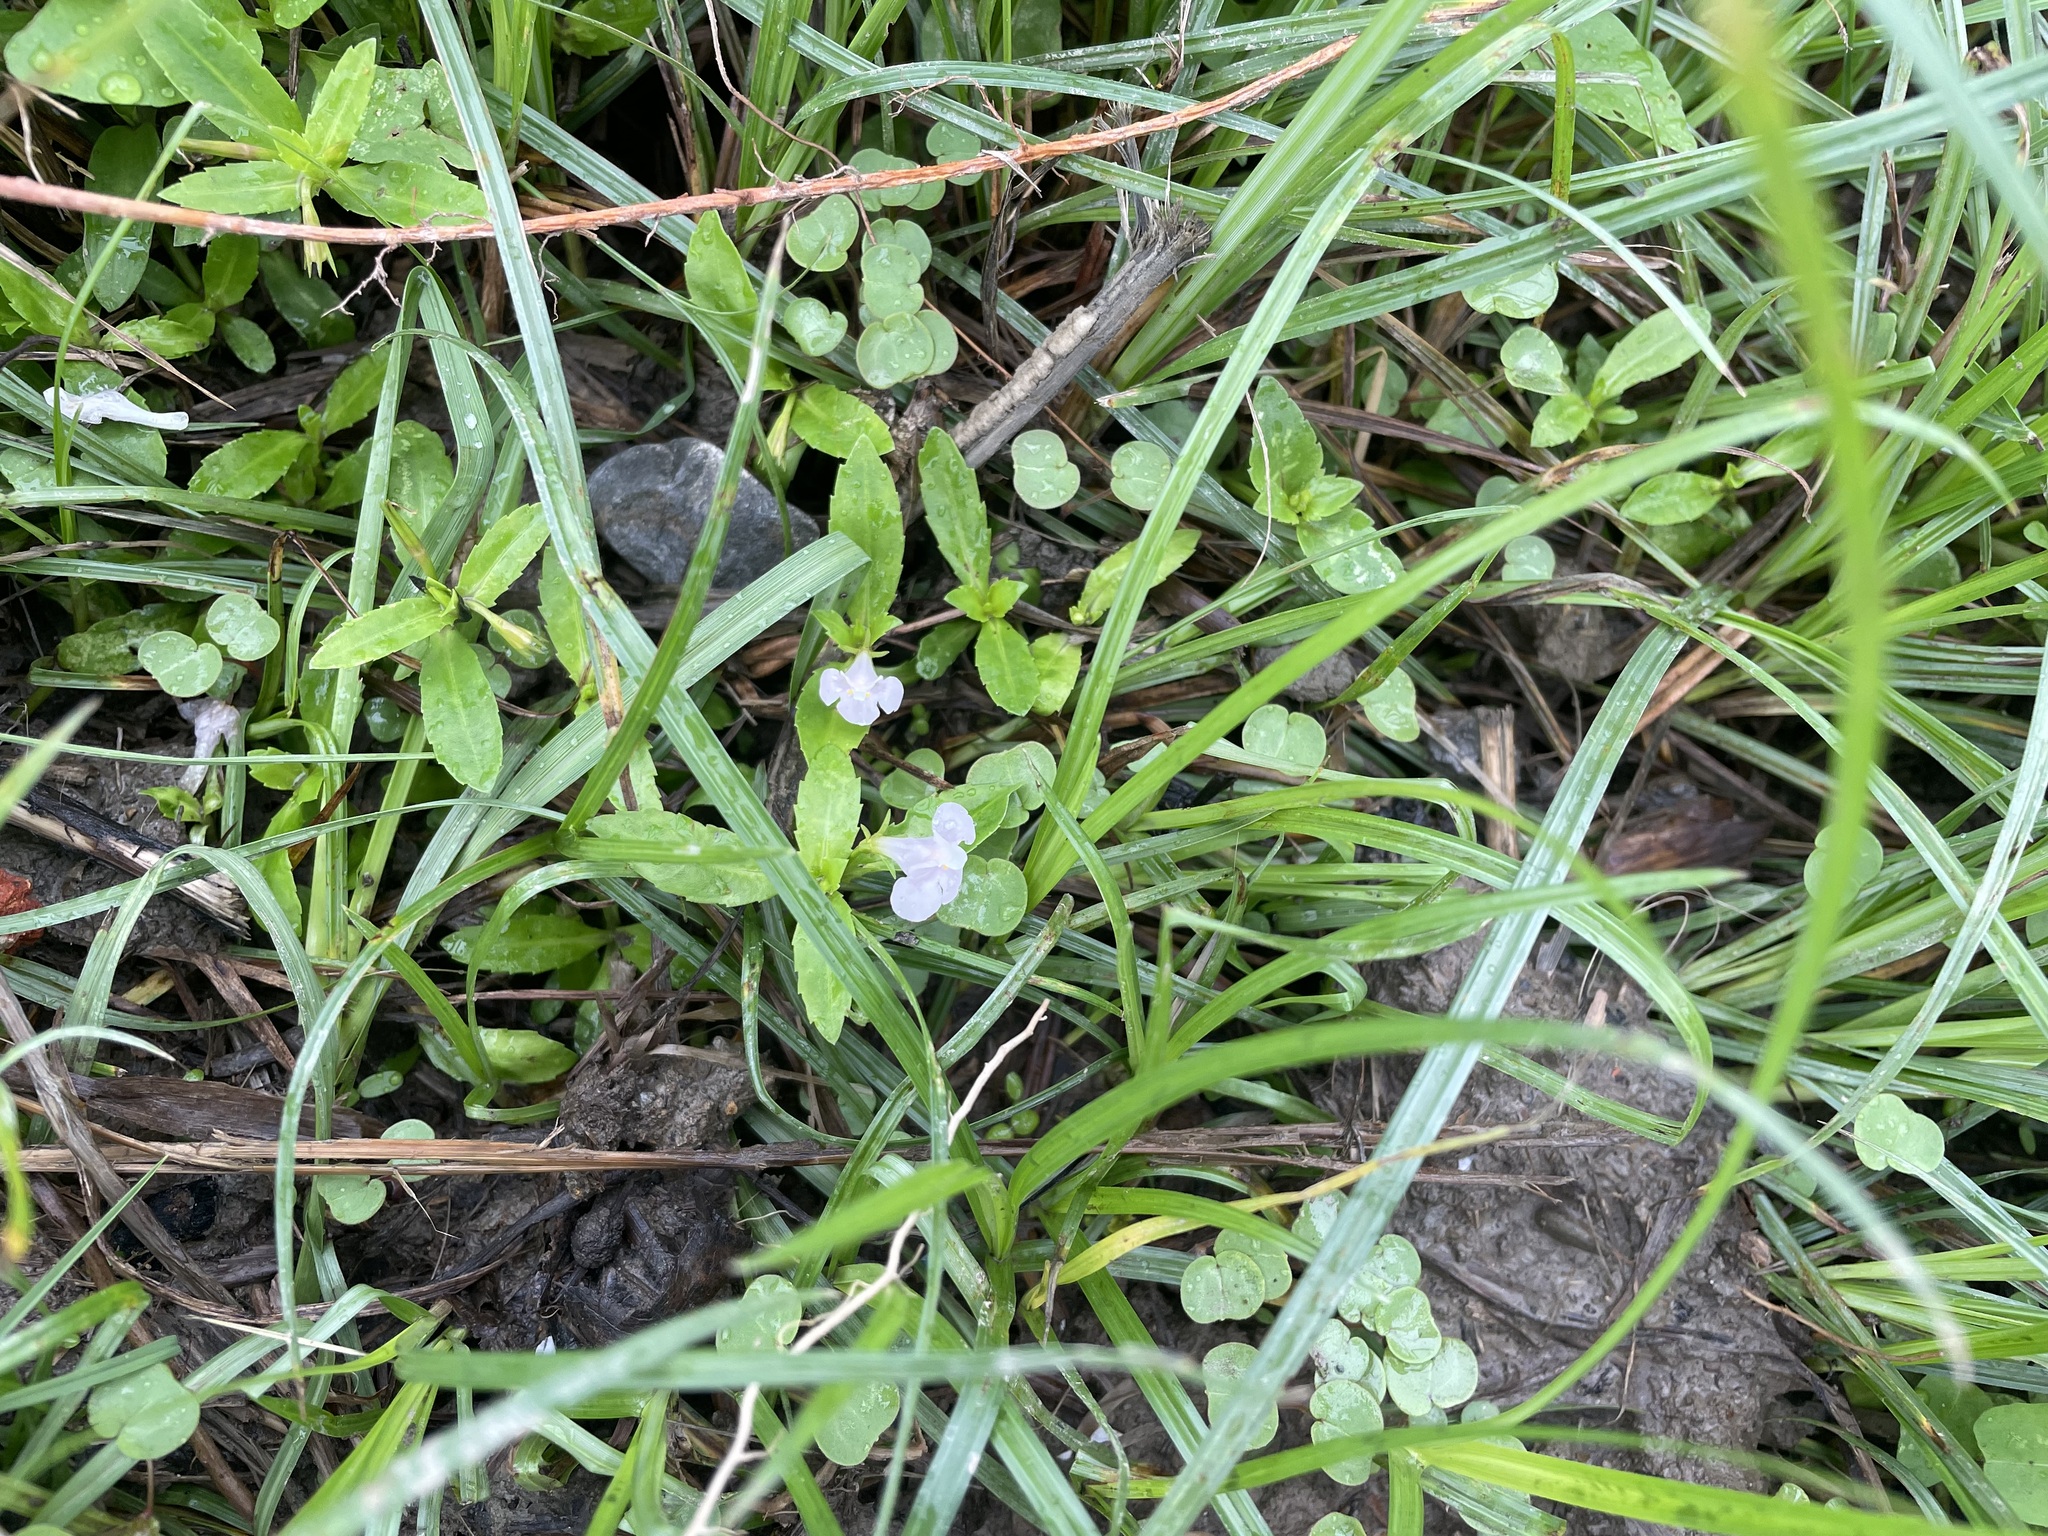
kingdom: Plantae
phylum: Tracheophyta
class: Magnoliopsida
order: Lamiales
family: Linderniaceae
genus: Bonnaya
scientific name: Bonnaya antipoda
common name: Sparrow false pimpernel
